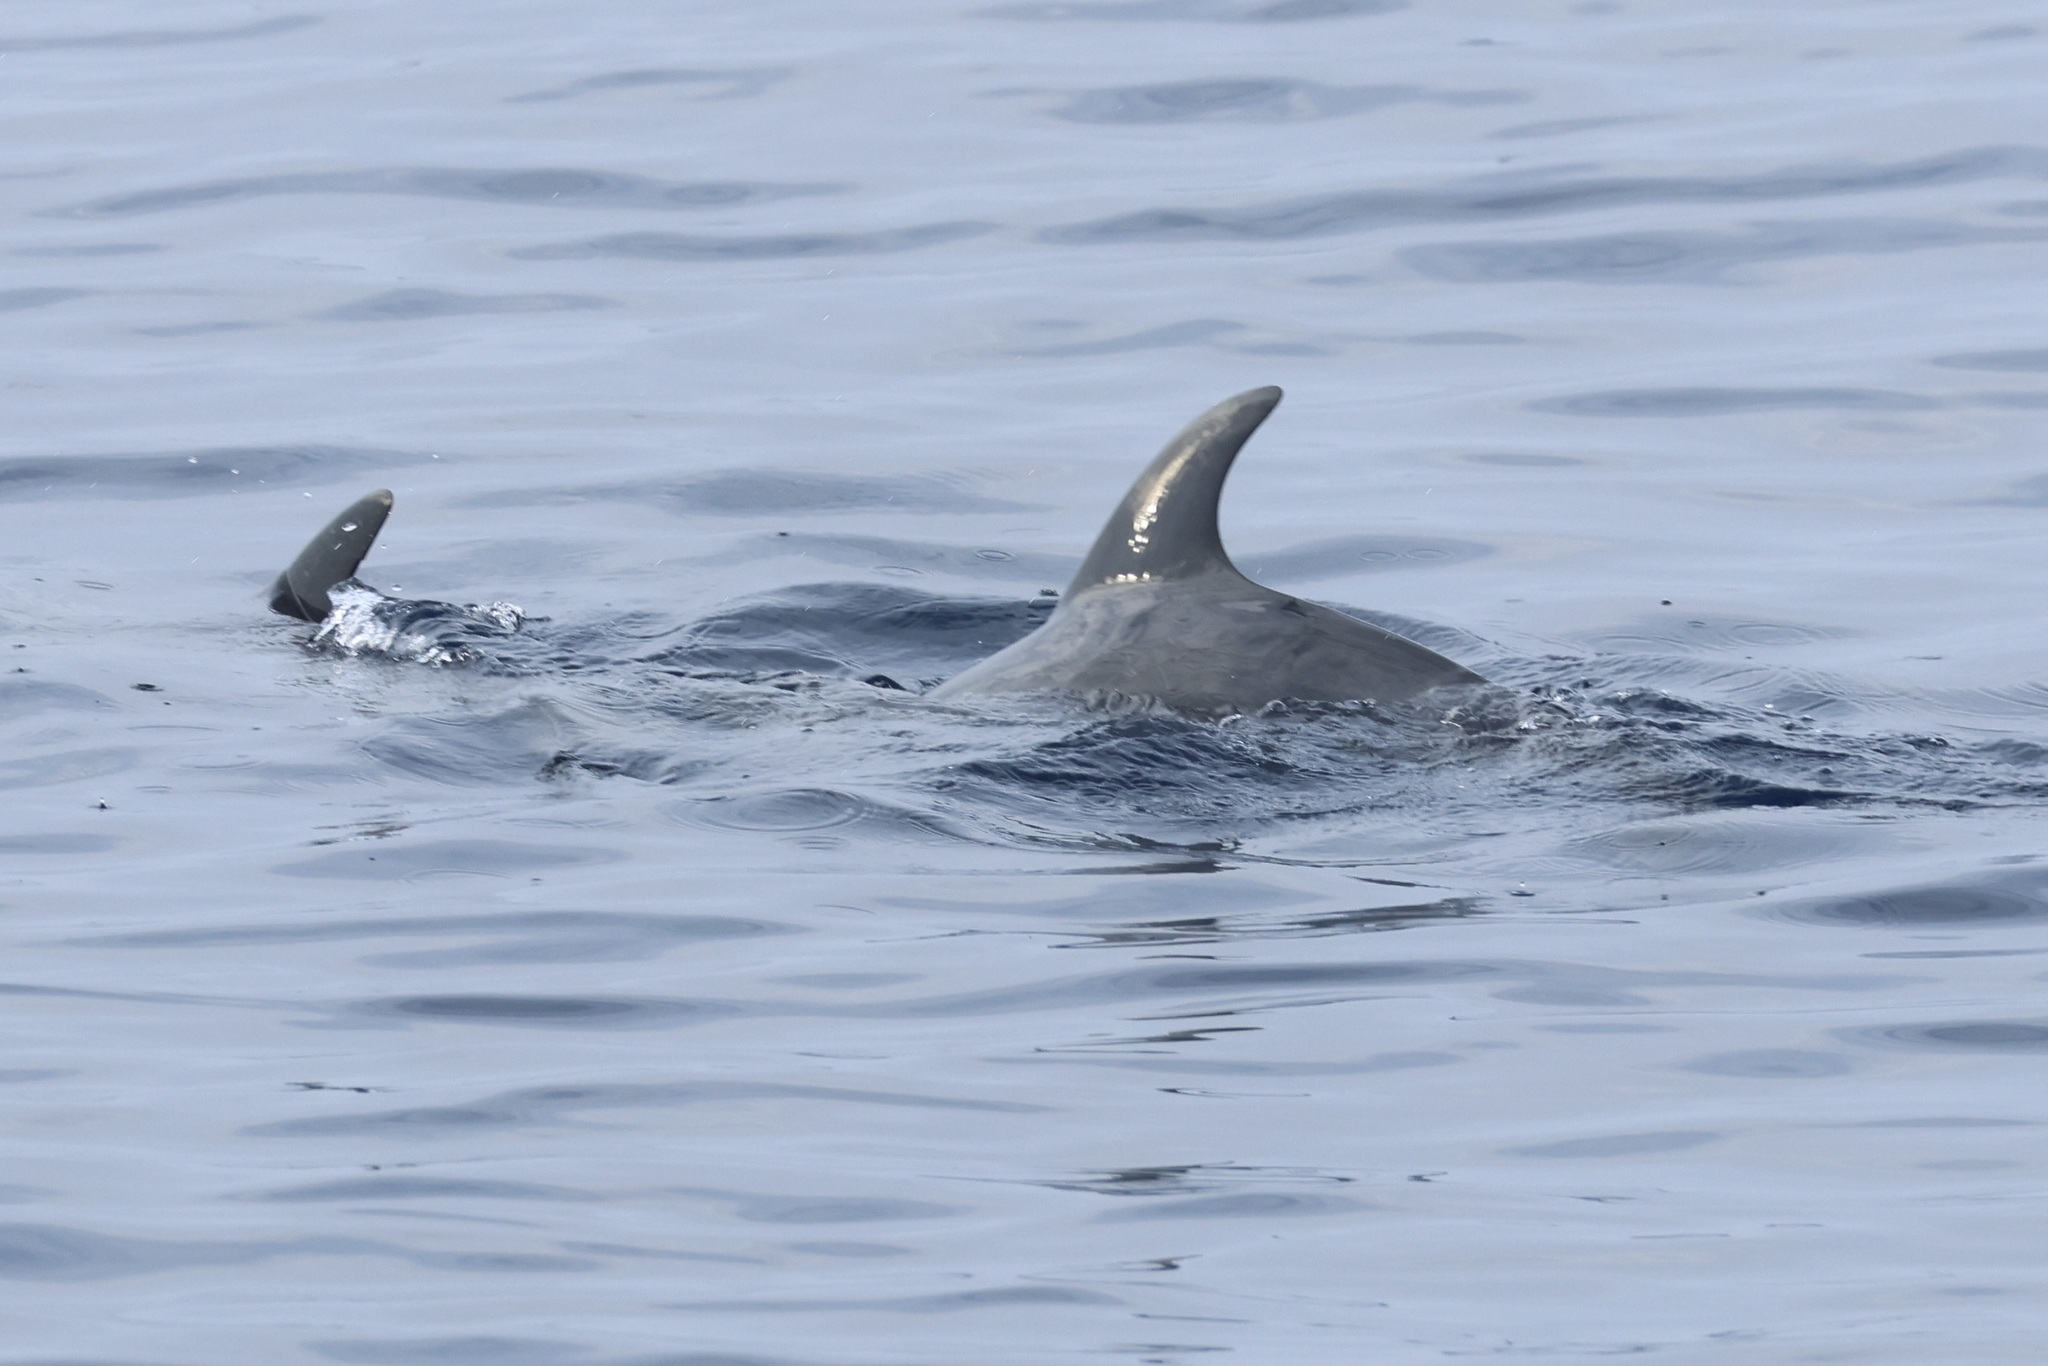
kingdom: Animalia
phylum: Chordata
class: Mammalia
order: Cetacea
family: Delphinidae
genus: Stenella
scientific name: Stenella frontalis
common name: Atlantic spotted dolphin
